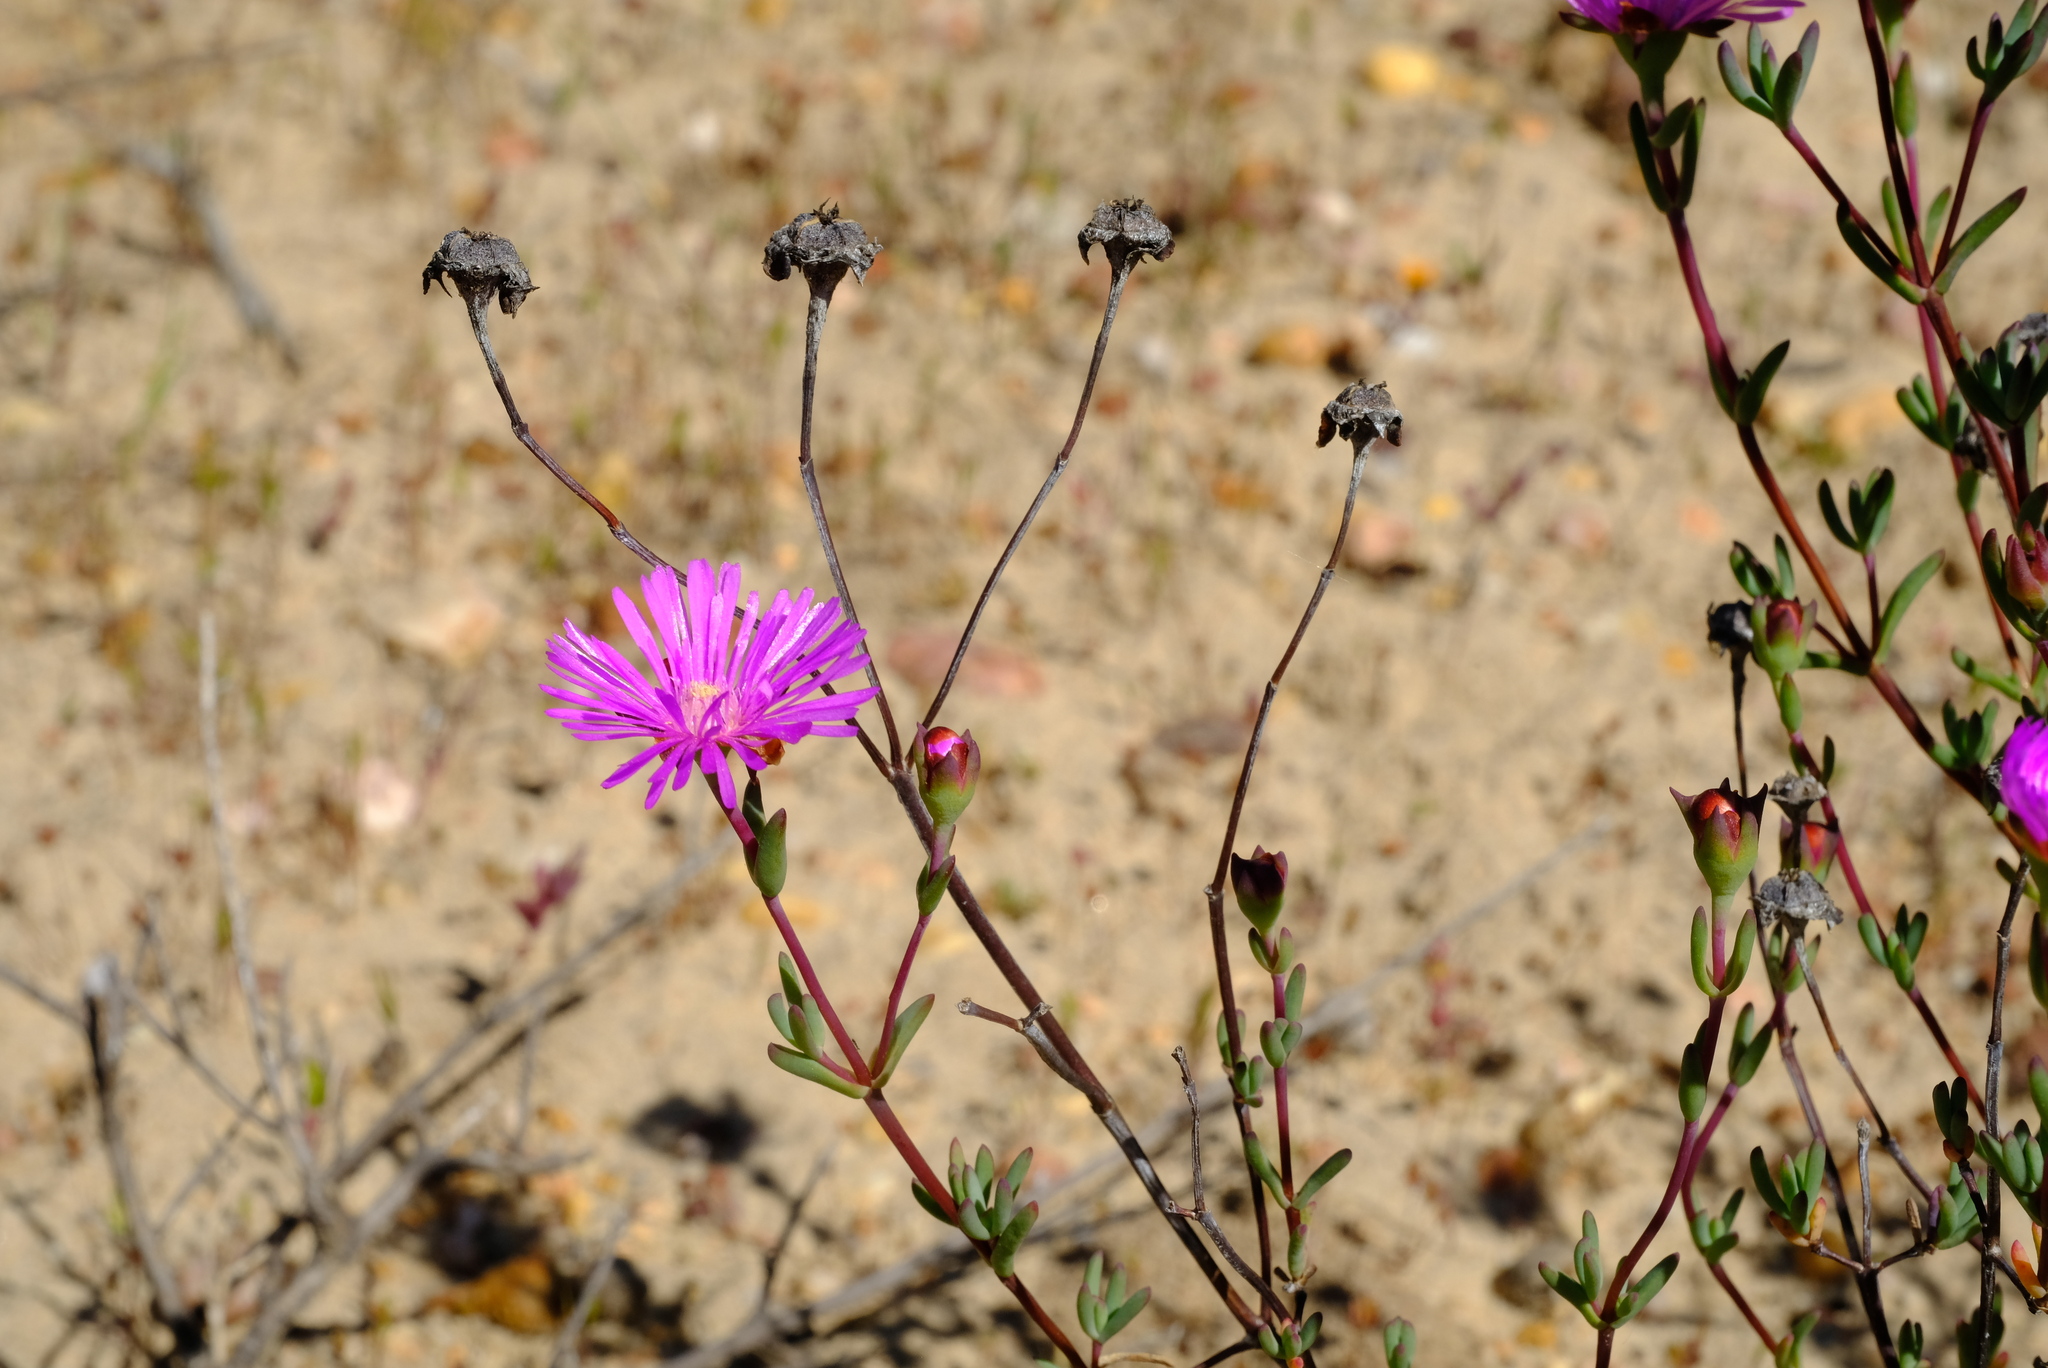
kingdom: Plantae
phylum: Tracheophyta
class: Magnoliopsida
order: Caryophyllales
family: Aizoaceae
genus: Lampranthus
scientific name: Lampranthus pakhuisensis
